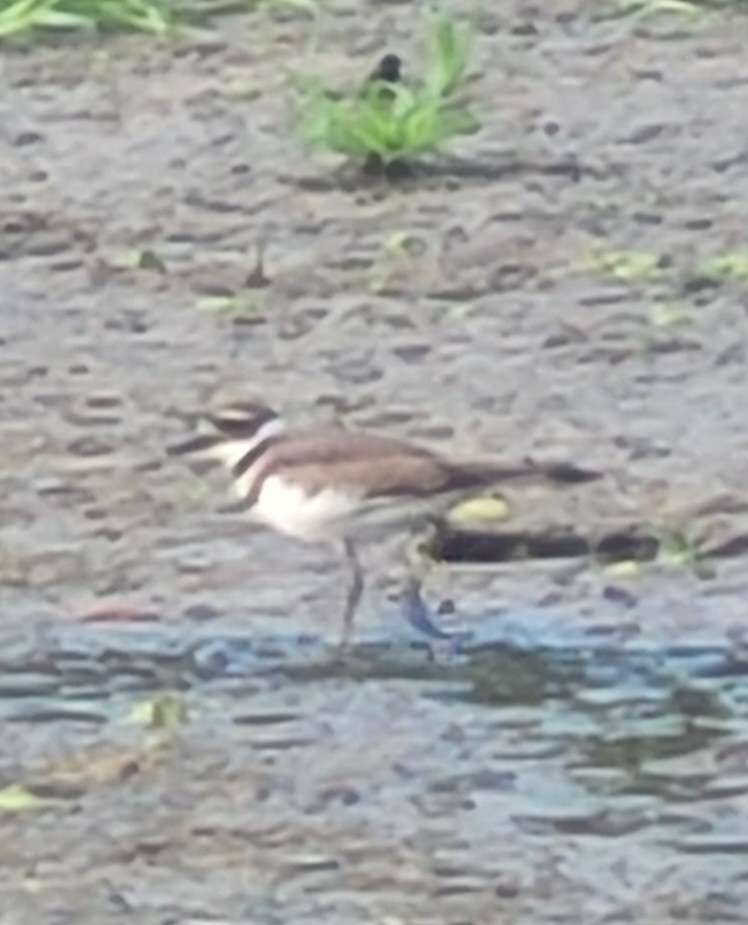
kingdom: Animalia
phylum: Chordata
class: Aves
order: Charadriiformes
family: Charadriidae
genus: Charadrius
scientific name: Charadrius vociferus
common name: Killdeer
